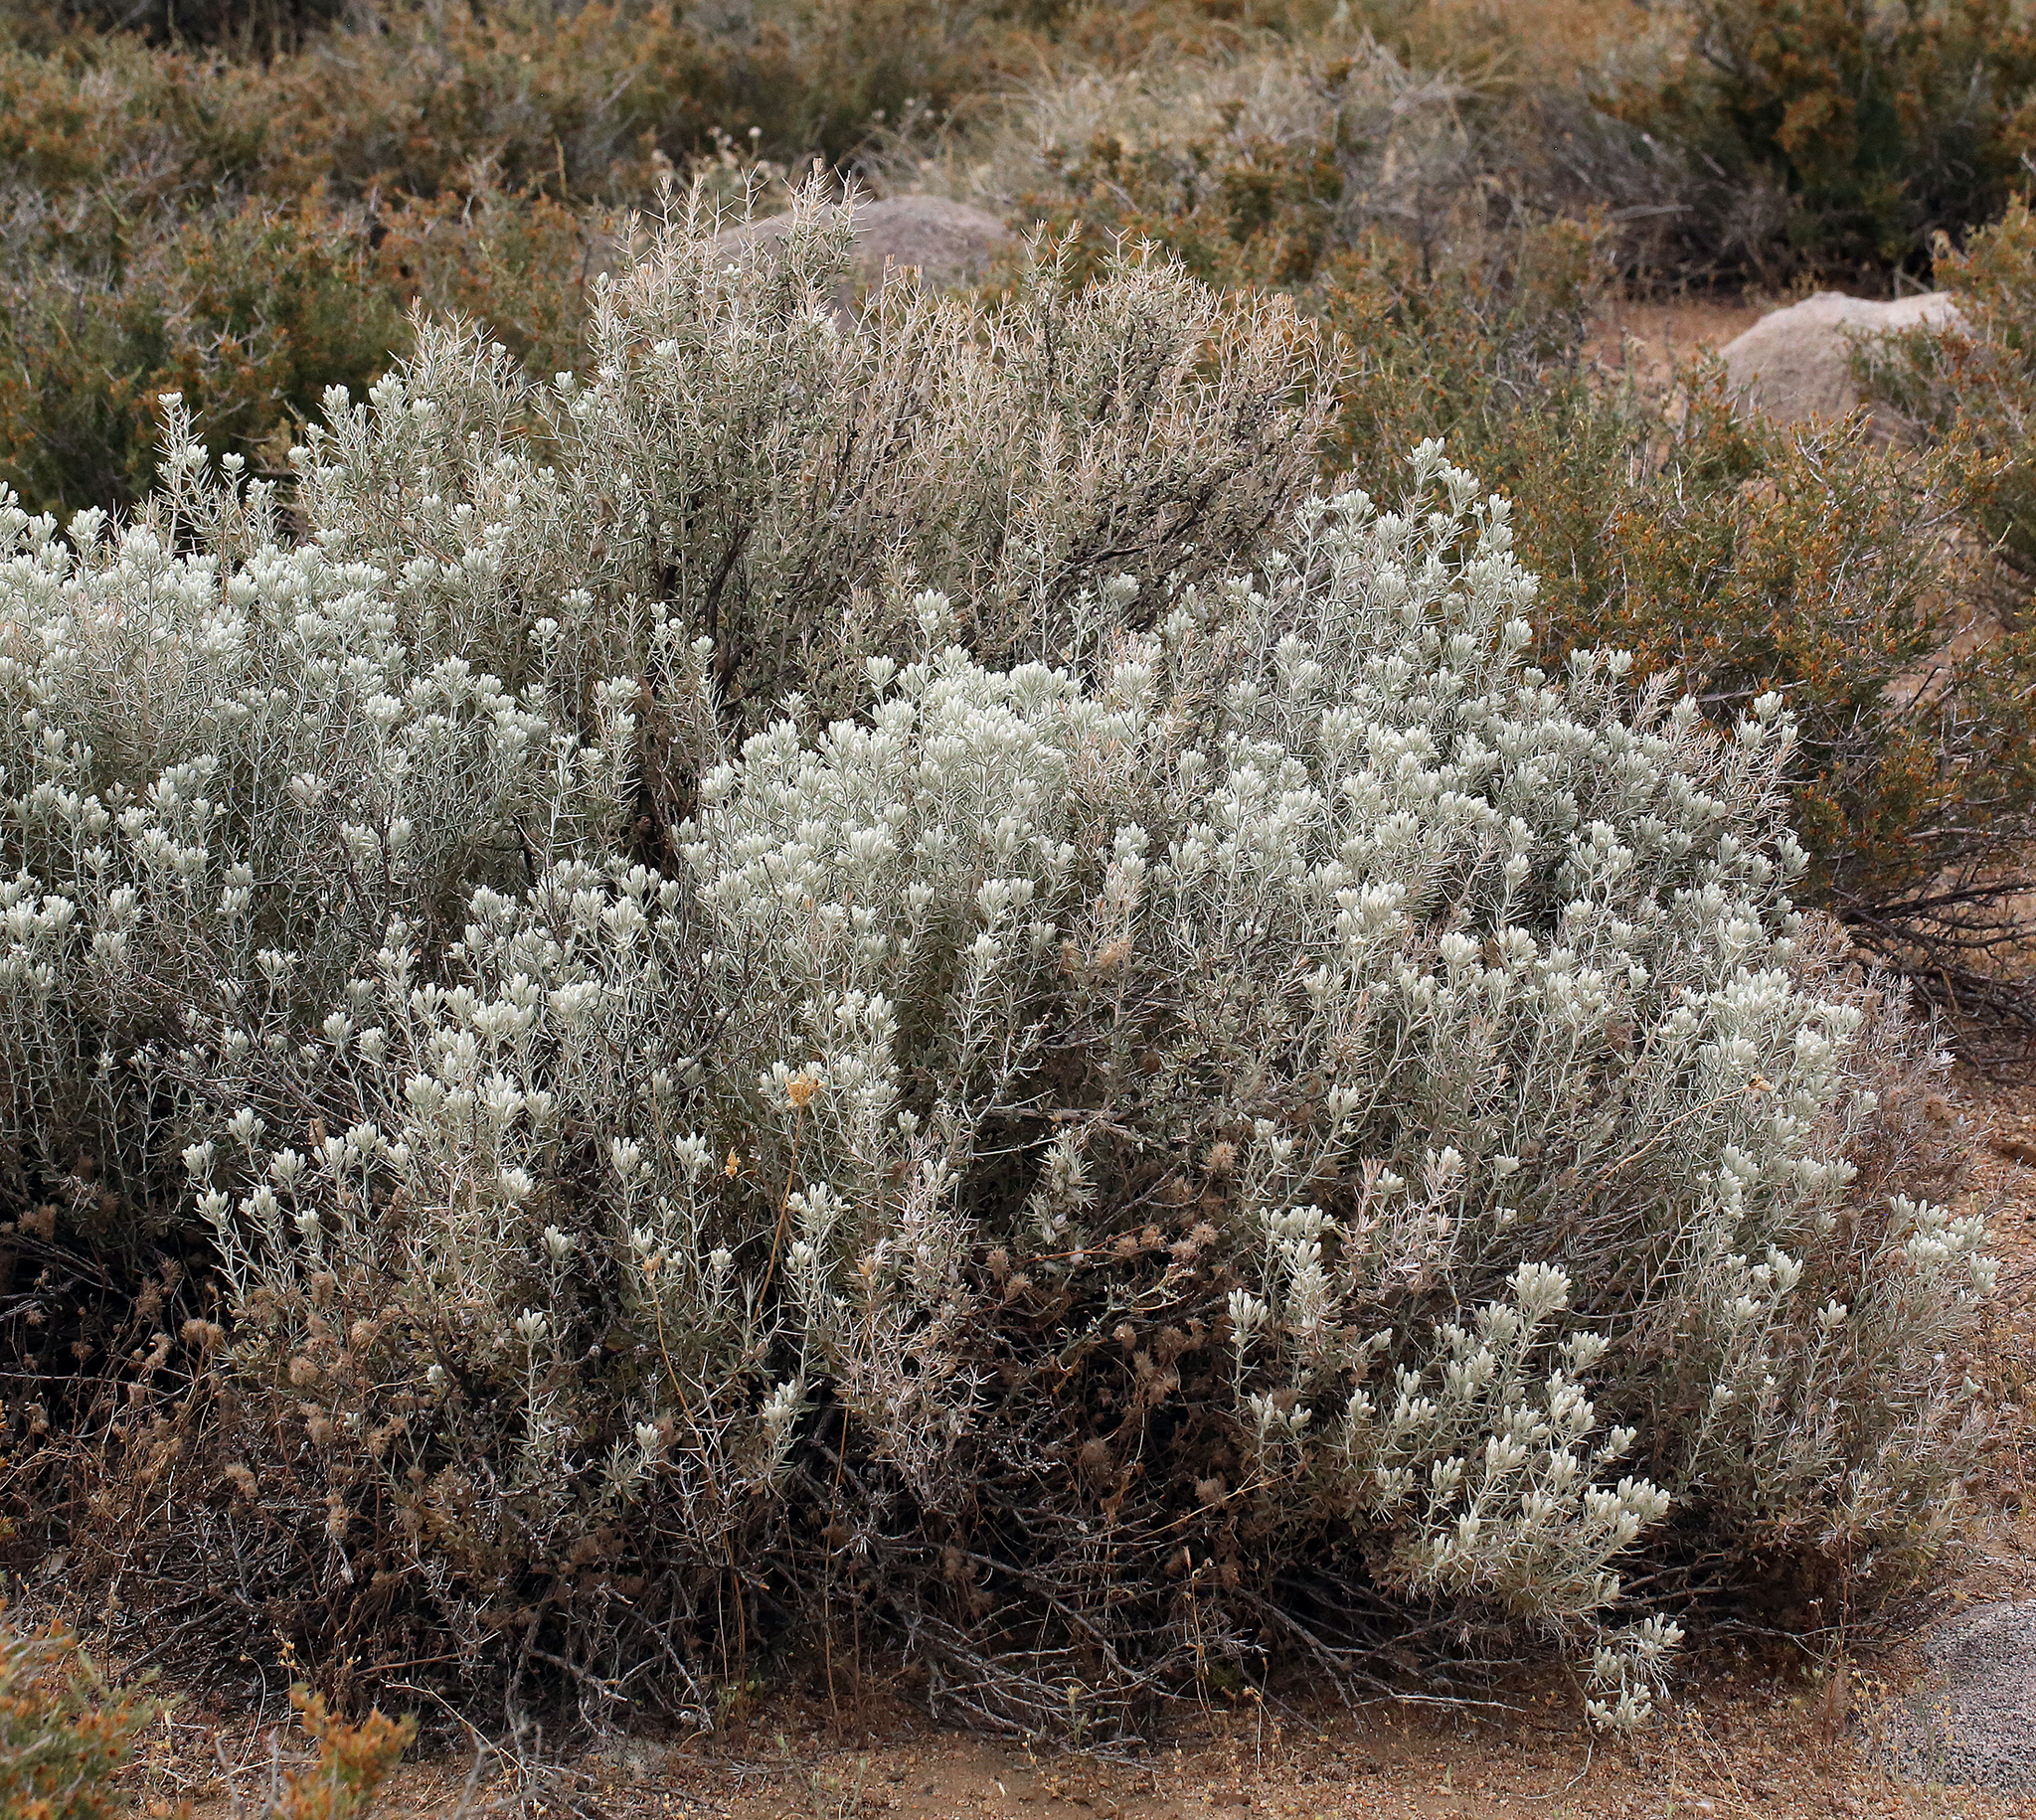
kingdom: Plantae
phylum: Tracheophyta
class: Magnoliopsida
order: Asterales
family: Asteraceae
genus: Tetradymia
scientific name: Tetradymia stenolepis
